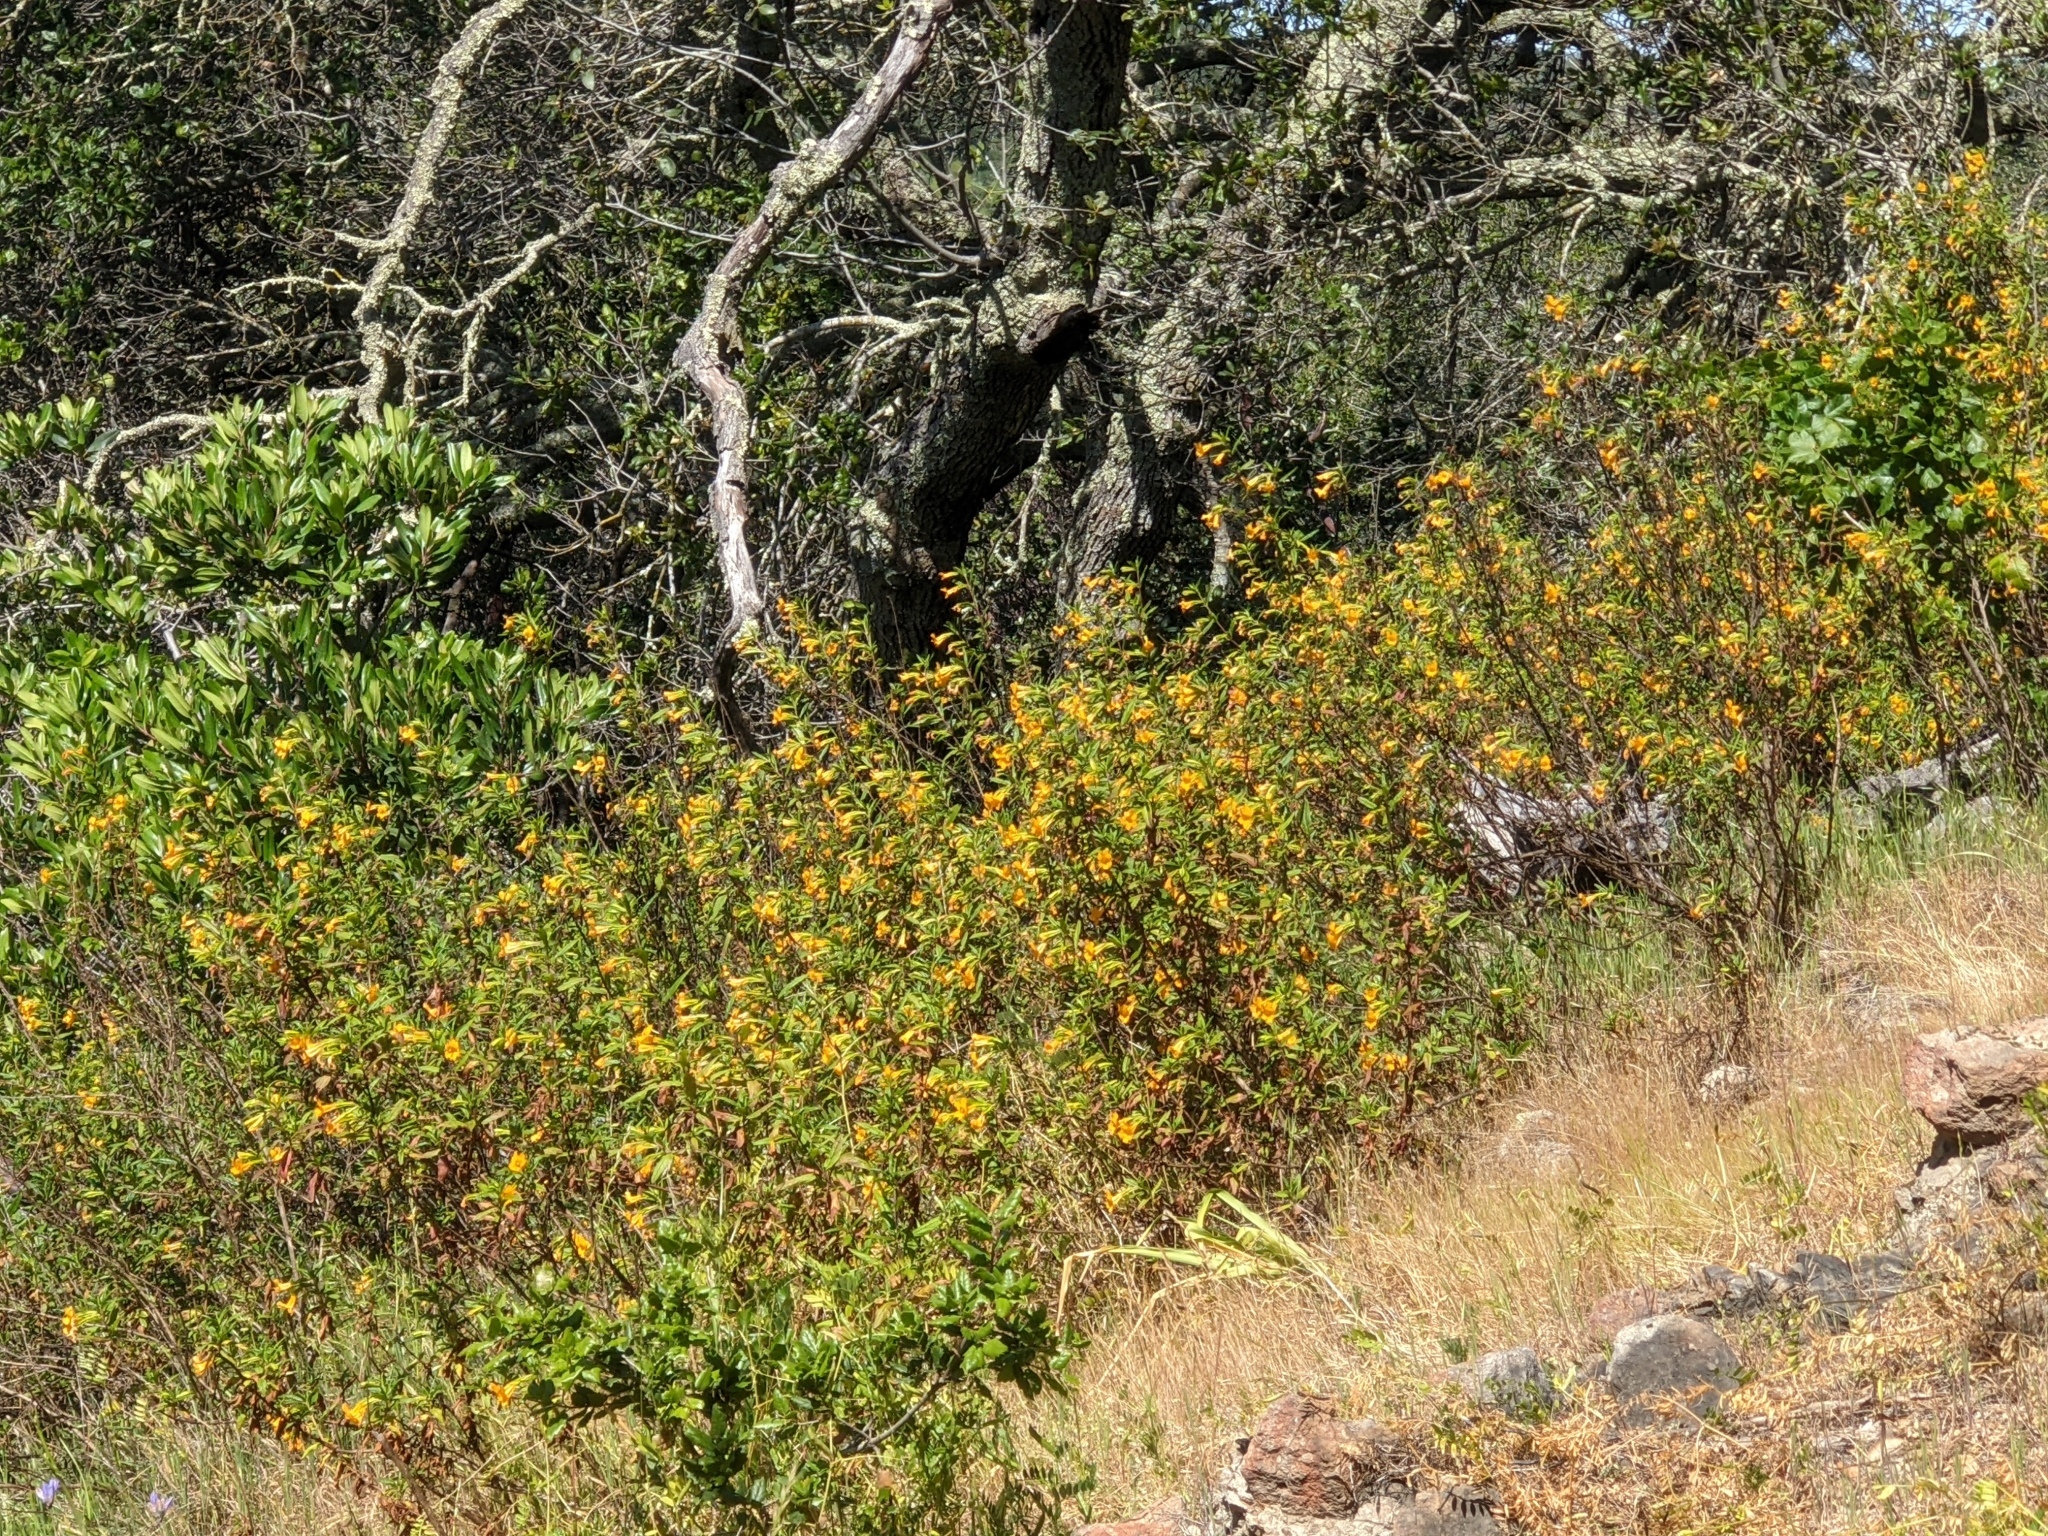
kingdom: Plantae
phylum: Tracheophyta
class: Magnoliopsida
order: Lamiales
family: Phrymaceae
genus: Diplacus
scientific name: Diplacus aurantiacus
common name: Bush monkey-flower
